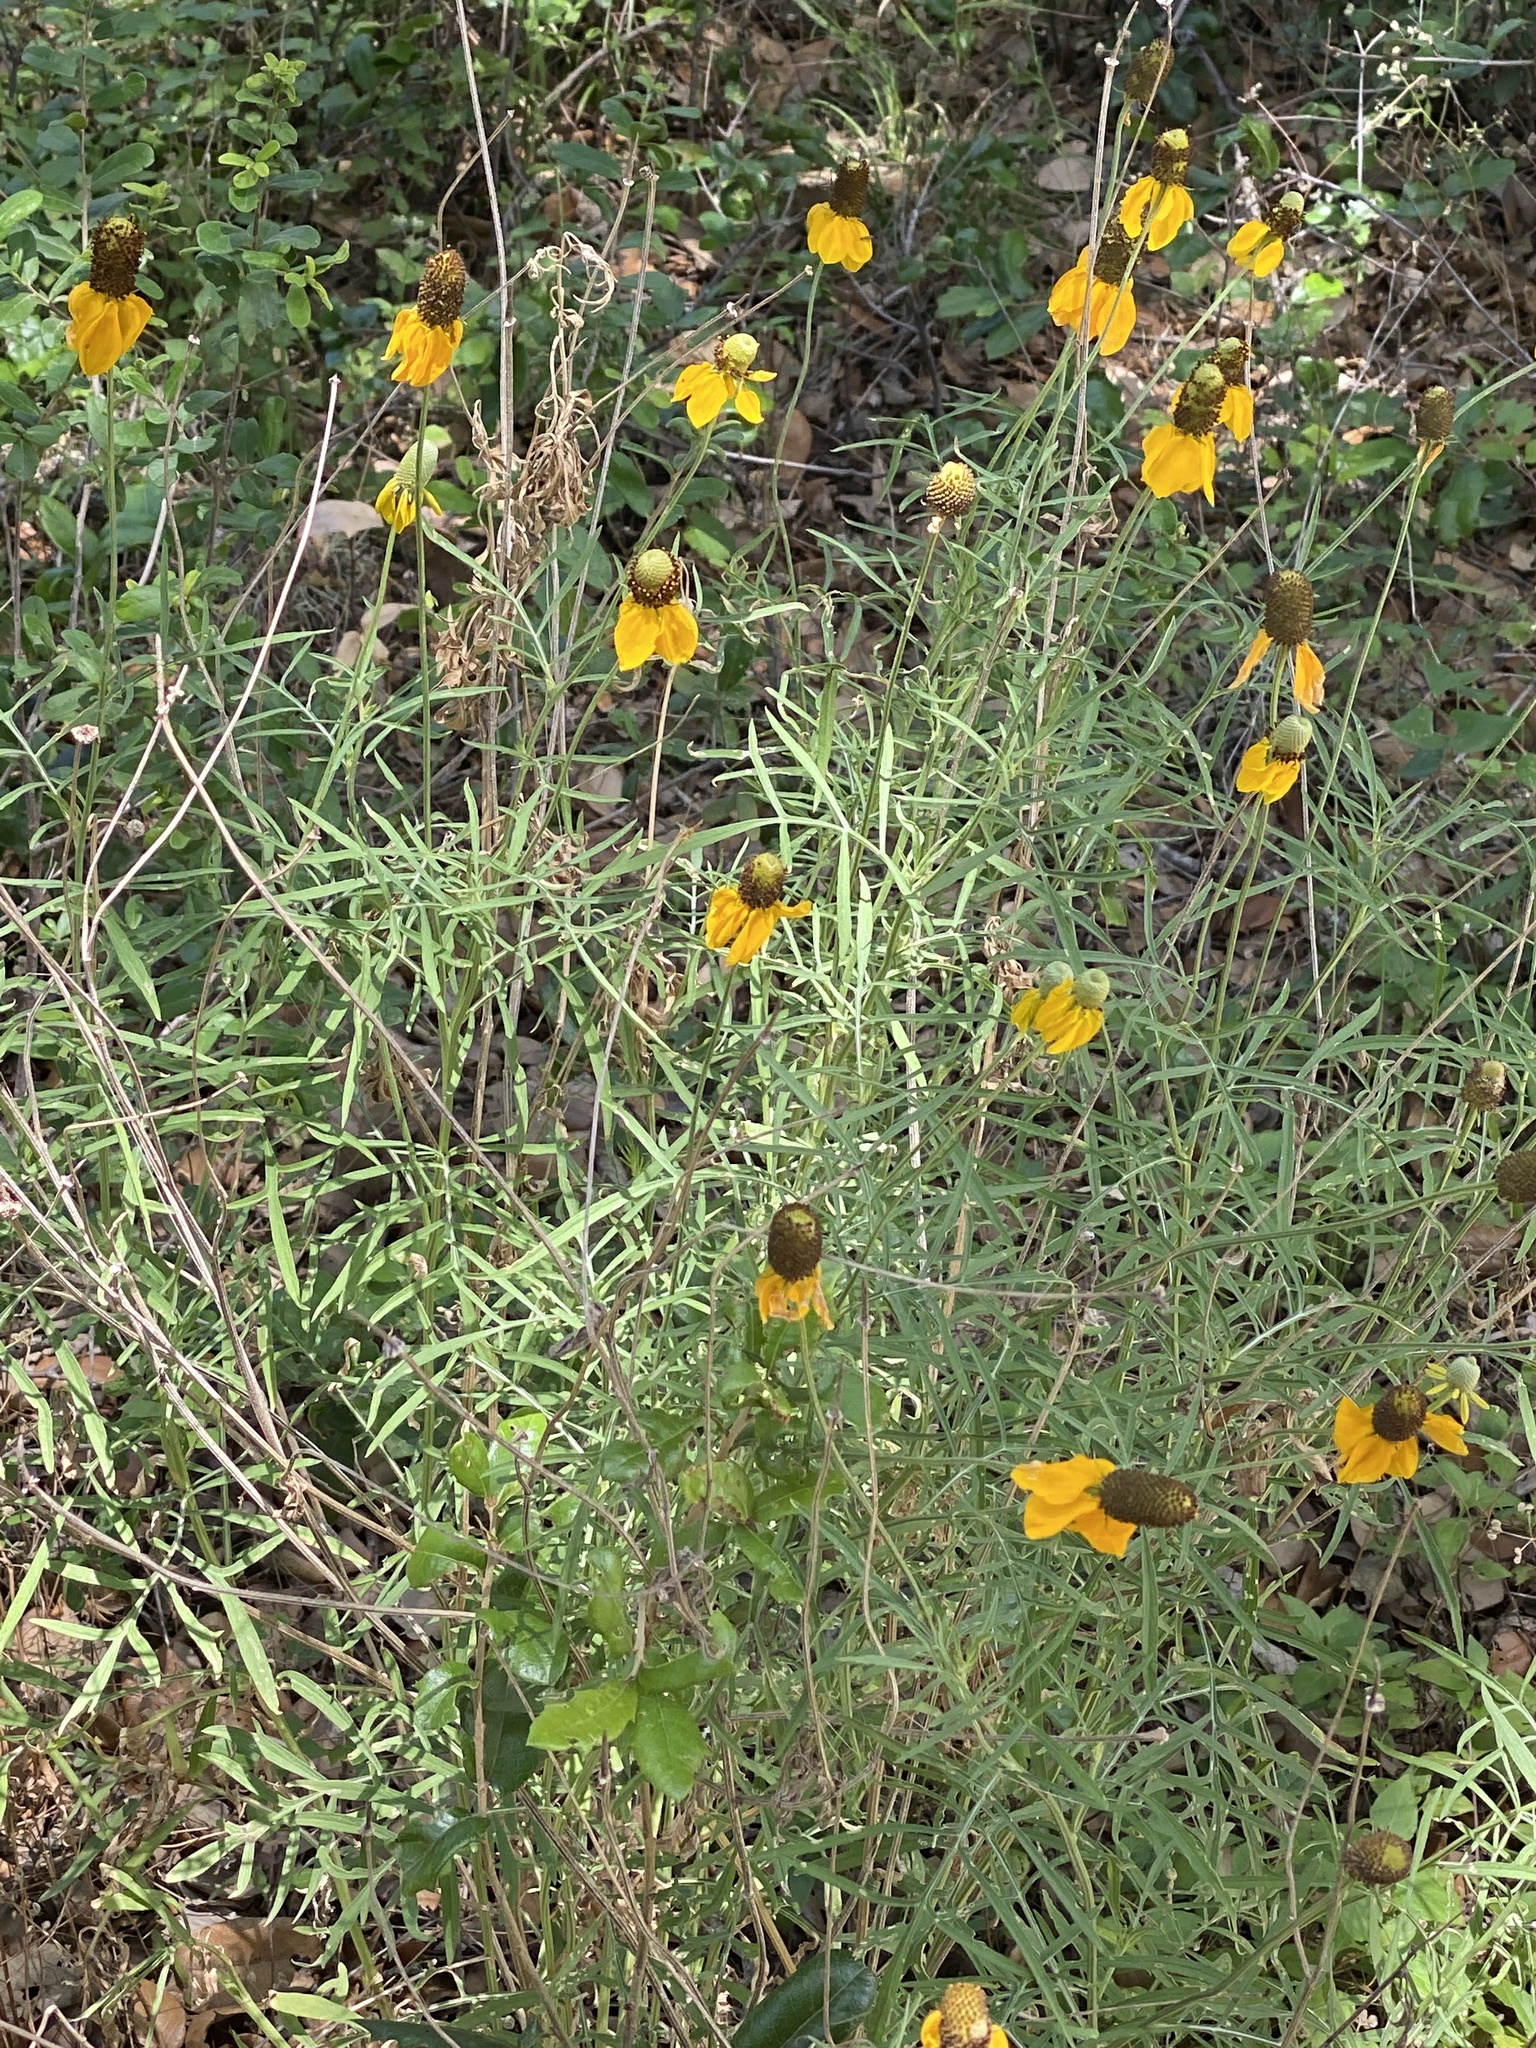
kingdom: Plantae
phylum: Tracheophyta
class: Magnoliopsida
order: Asterales
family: Asteraceae
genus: Ratibida
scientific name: Ratibida columnifera
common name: Prairie coneflower
